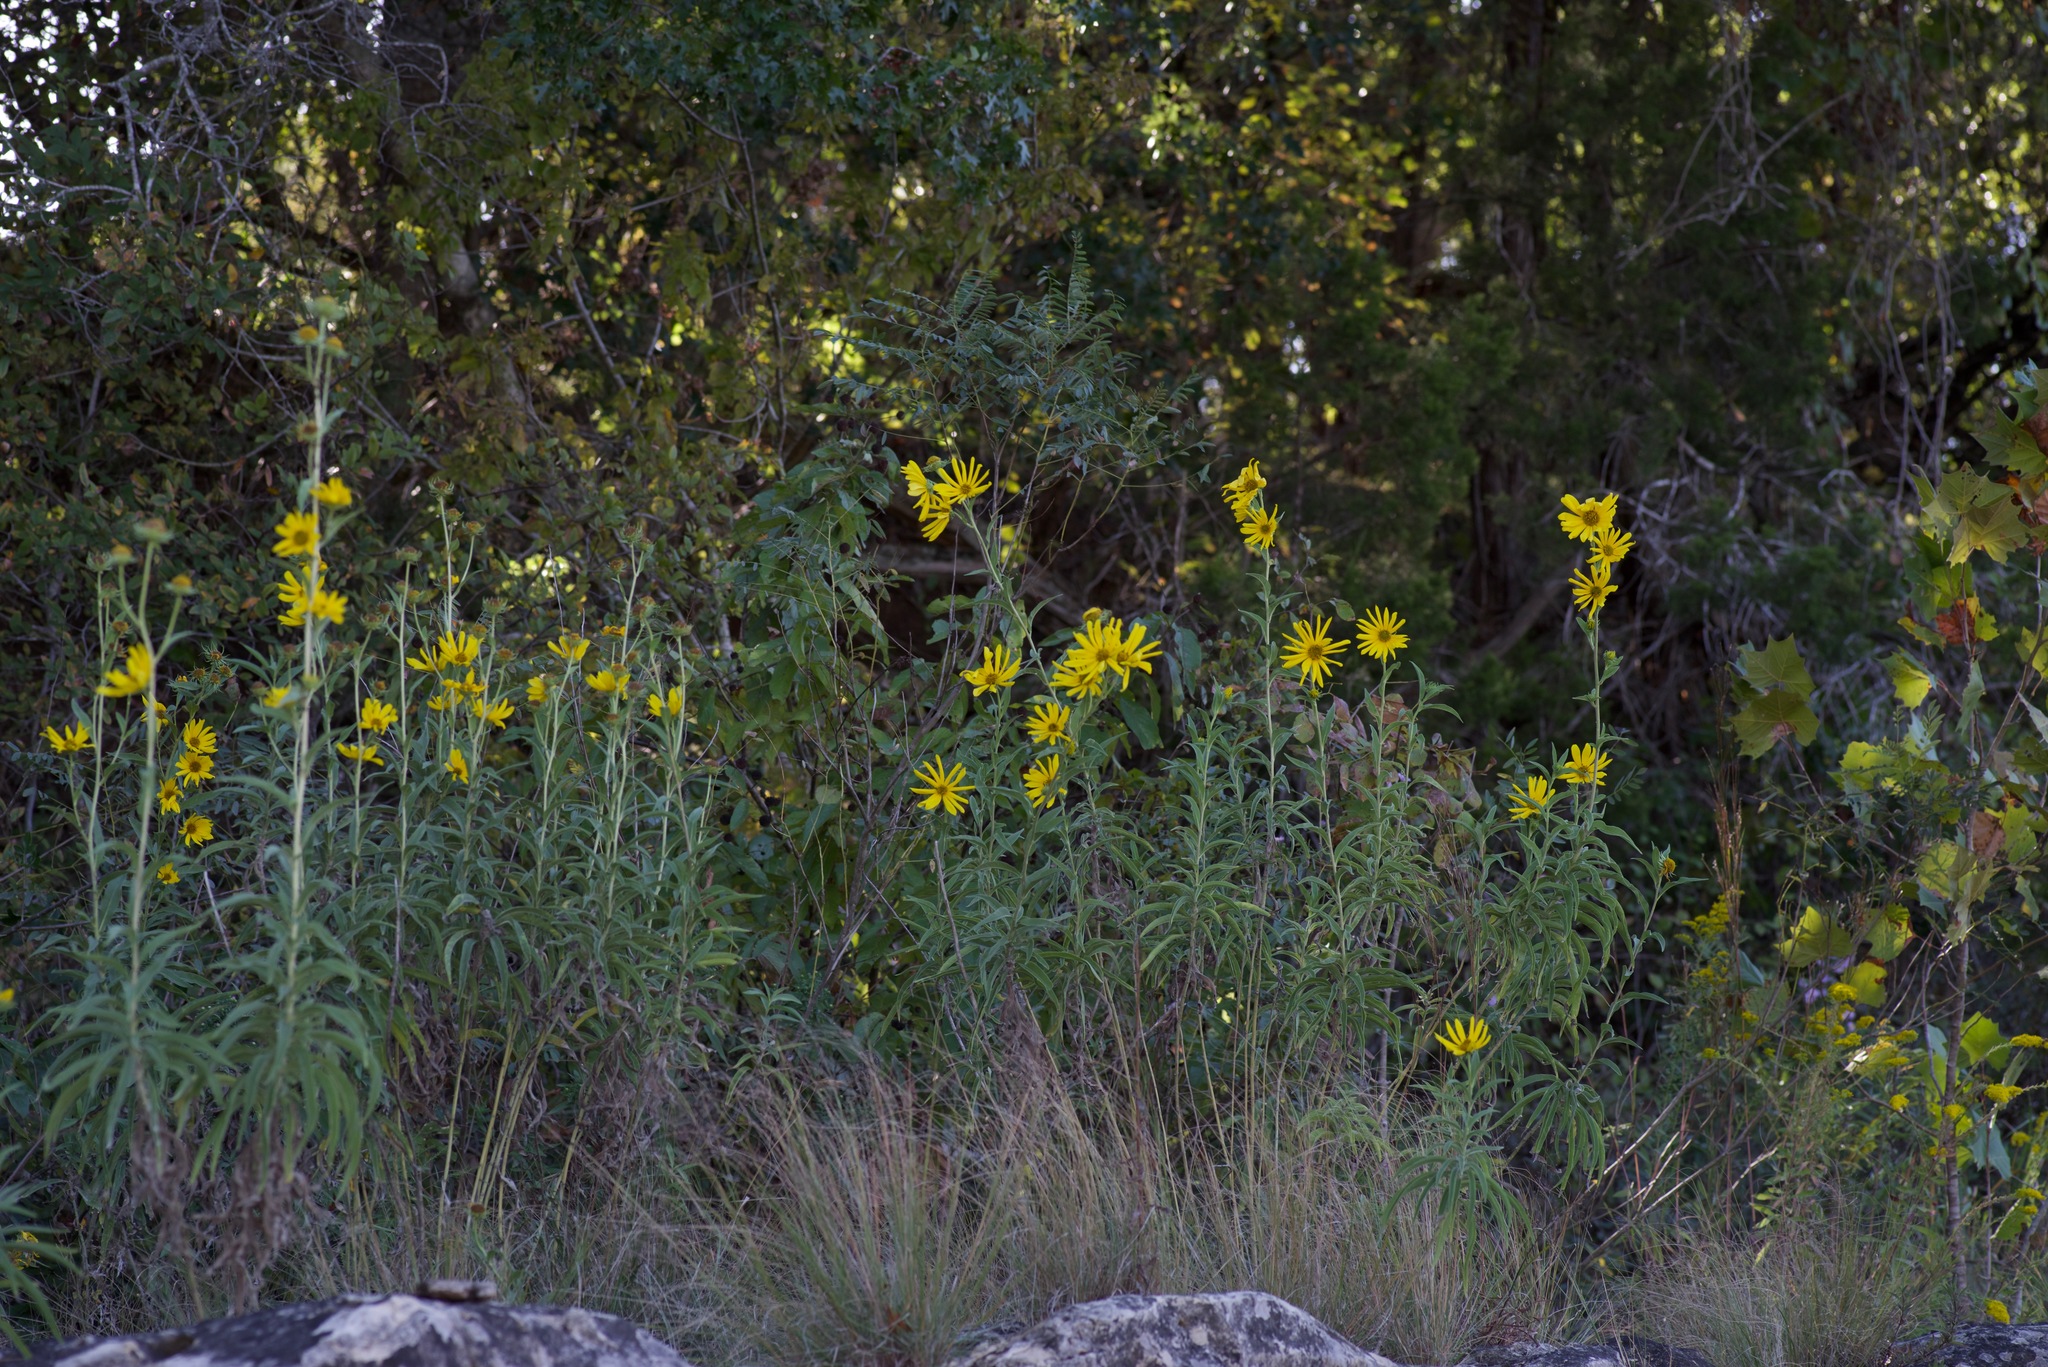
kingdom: Plantae
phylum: Tracheophyta
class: Magnoliopsida
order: Asterales
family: Asteraceae
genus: Helianthus
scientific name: Helianthus maximiliani
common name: Maximilian's sunflower
